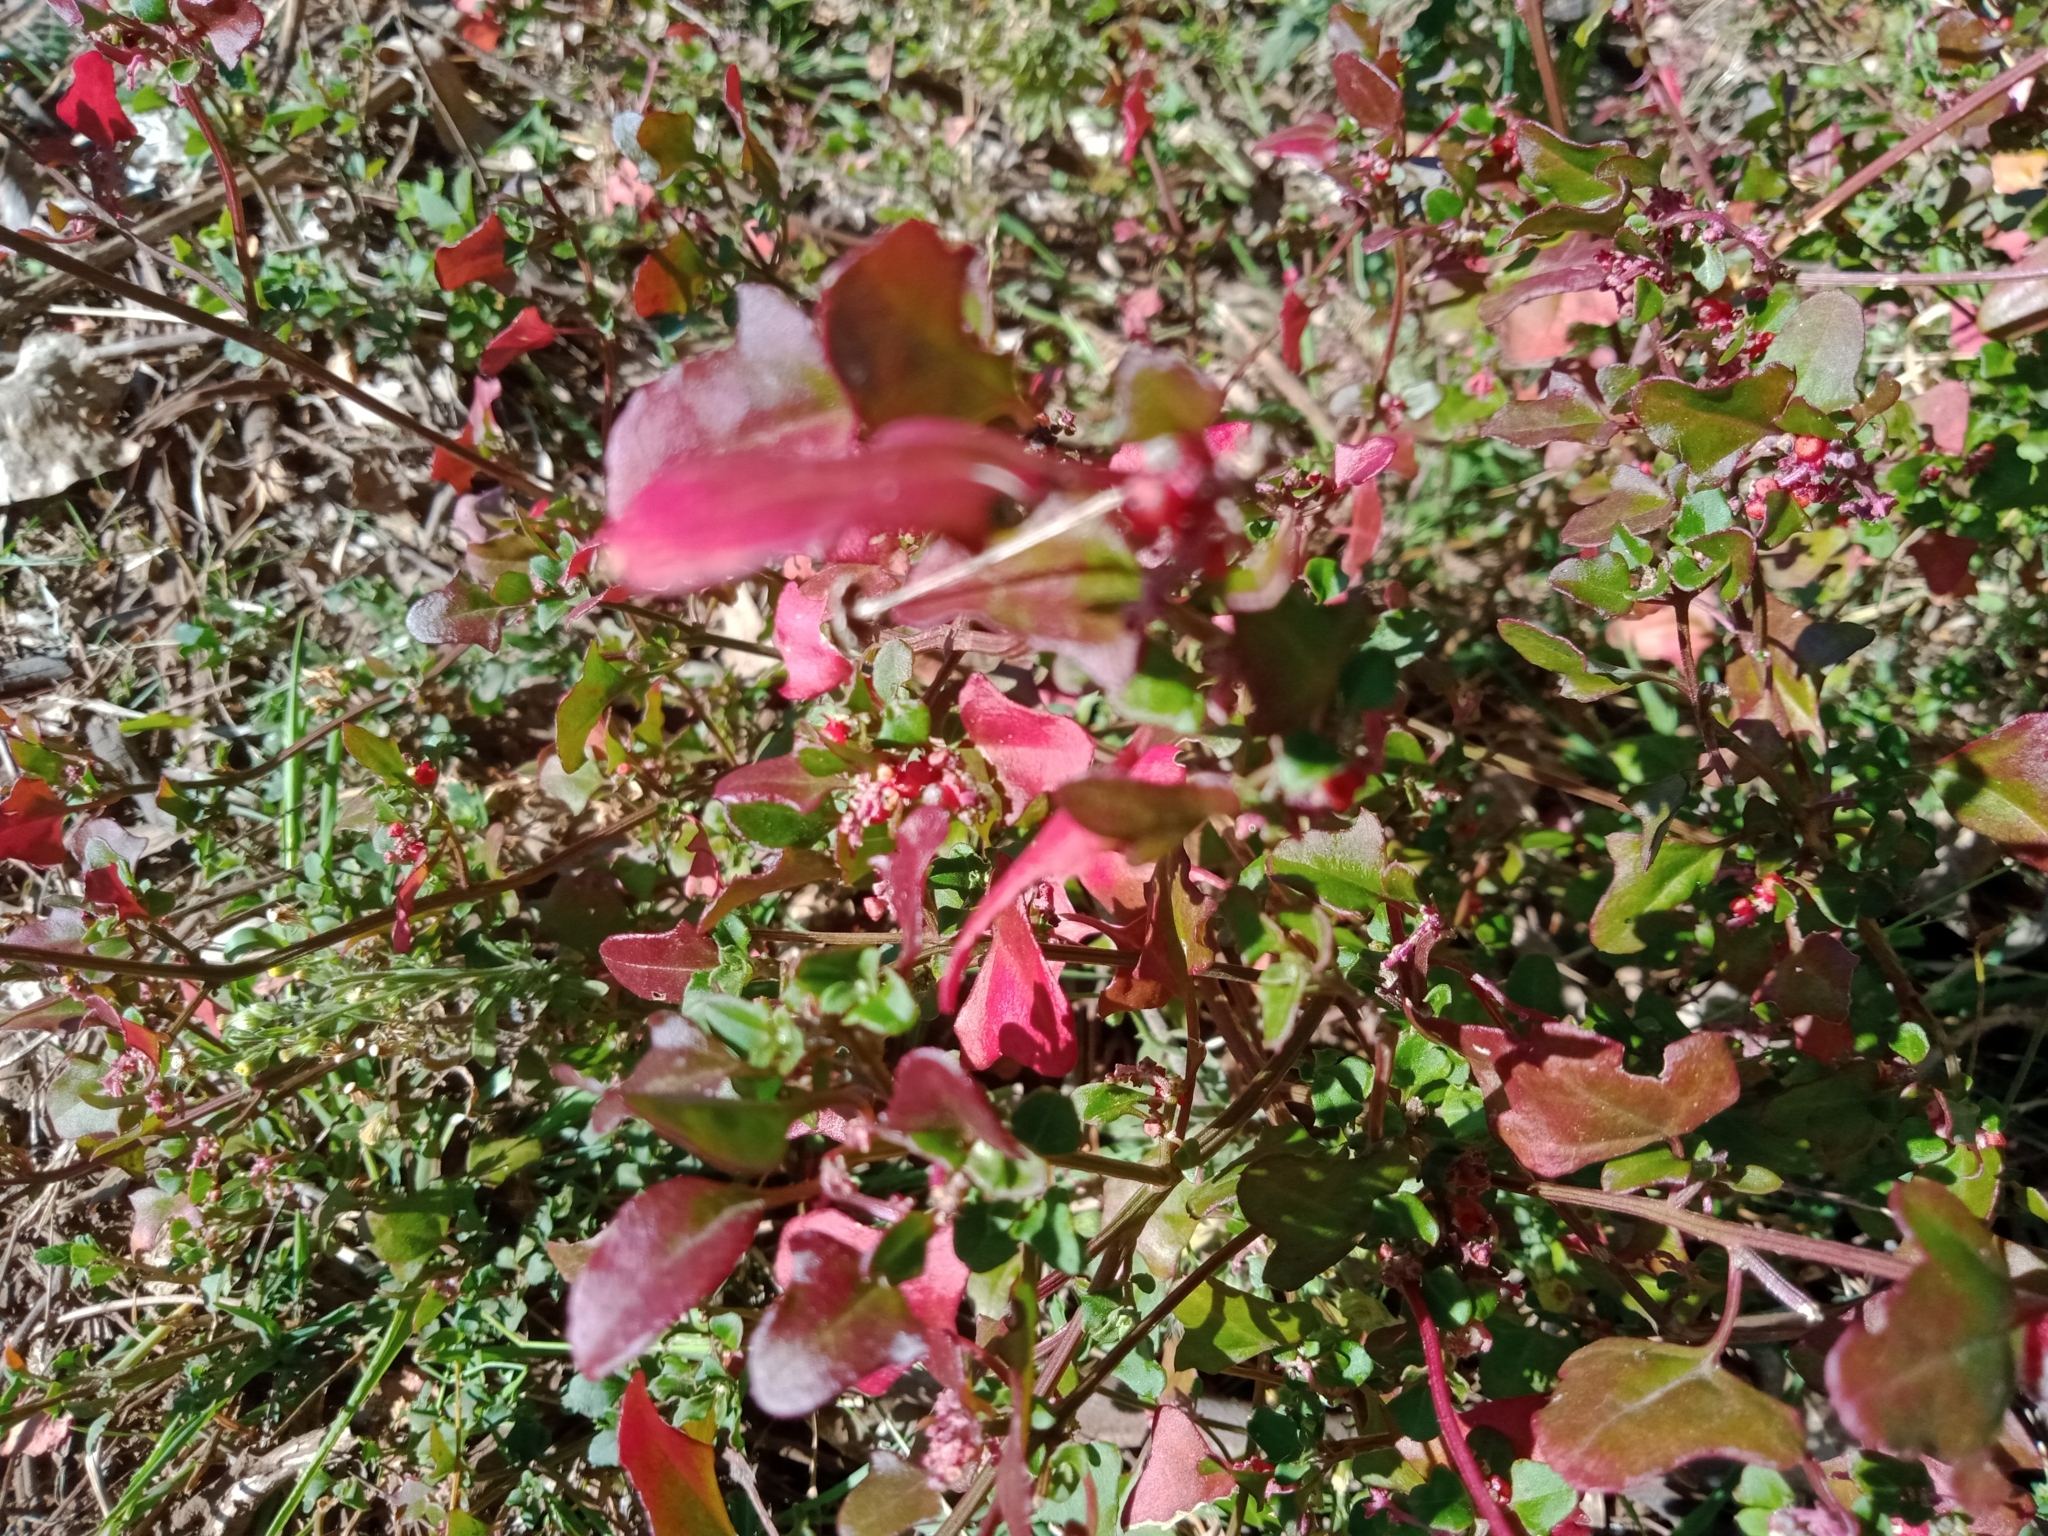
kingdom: Plantae
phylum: Tracheophyta
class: Magnoliopsida
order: Caryophyllales
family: Amaranthaceae
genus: Chenopodium
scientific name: Chenopodium robertianum
